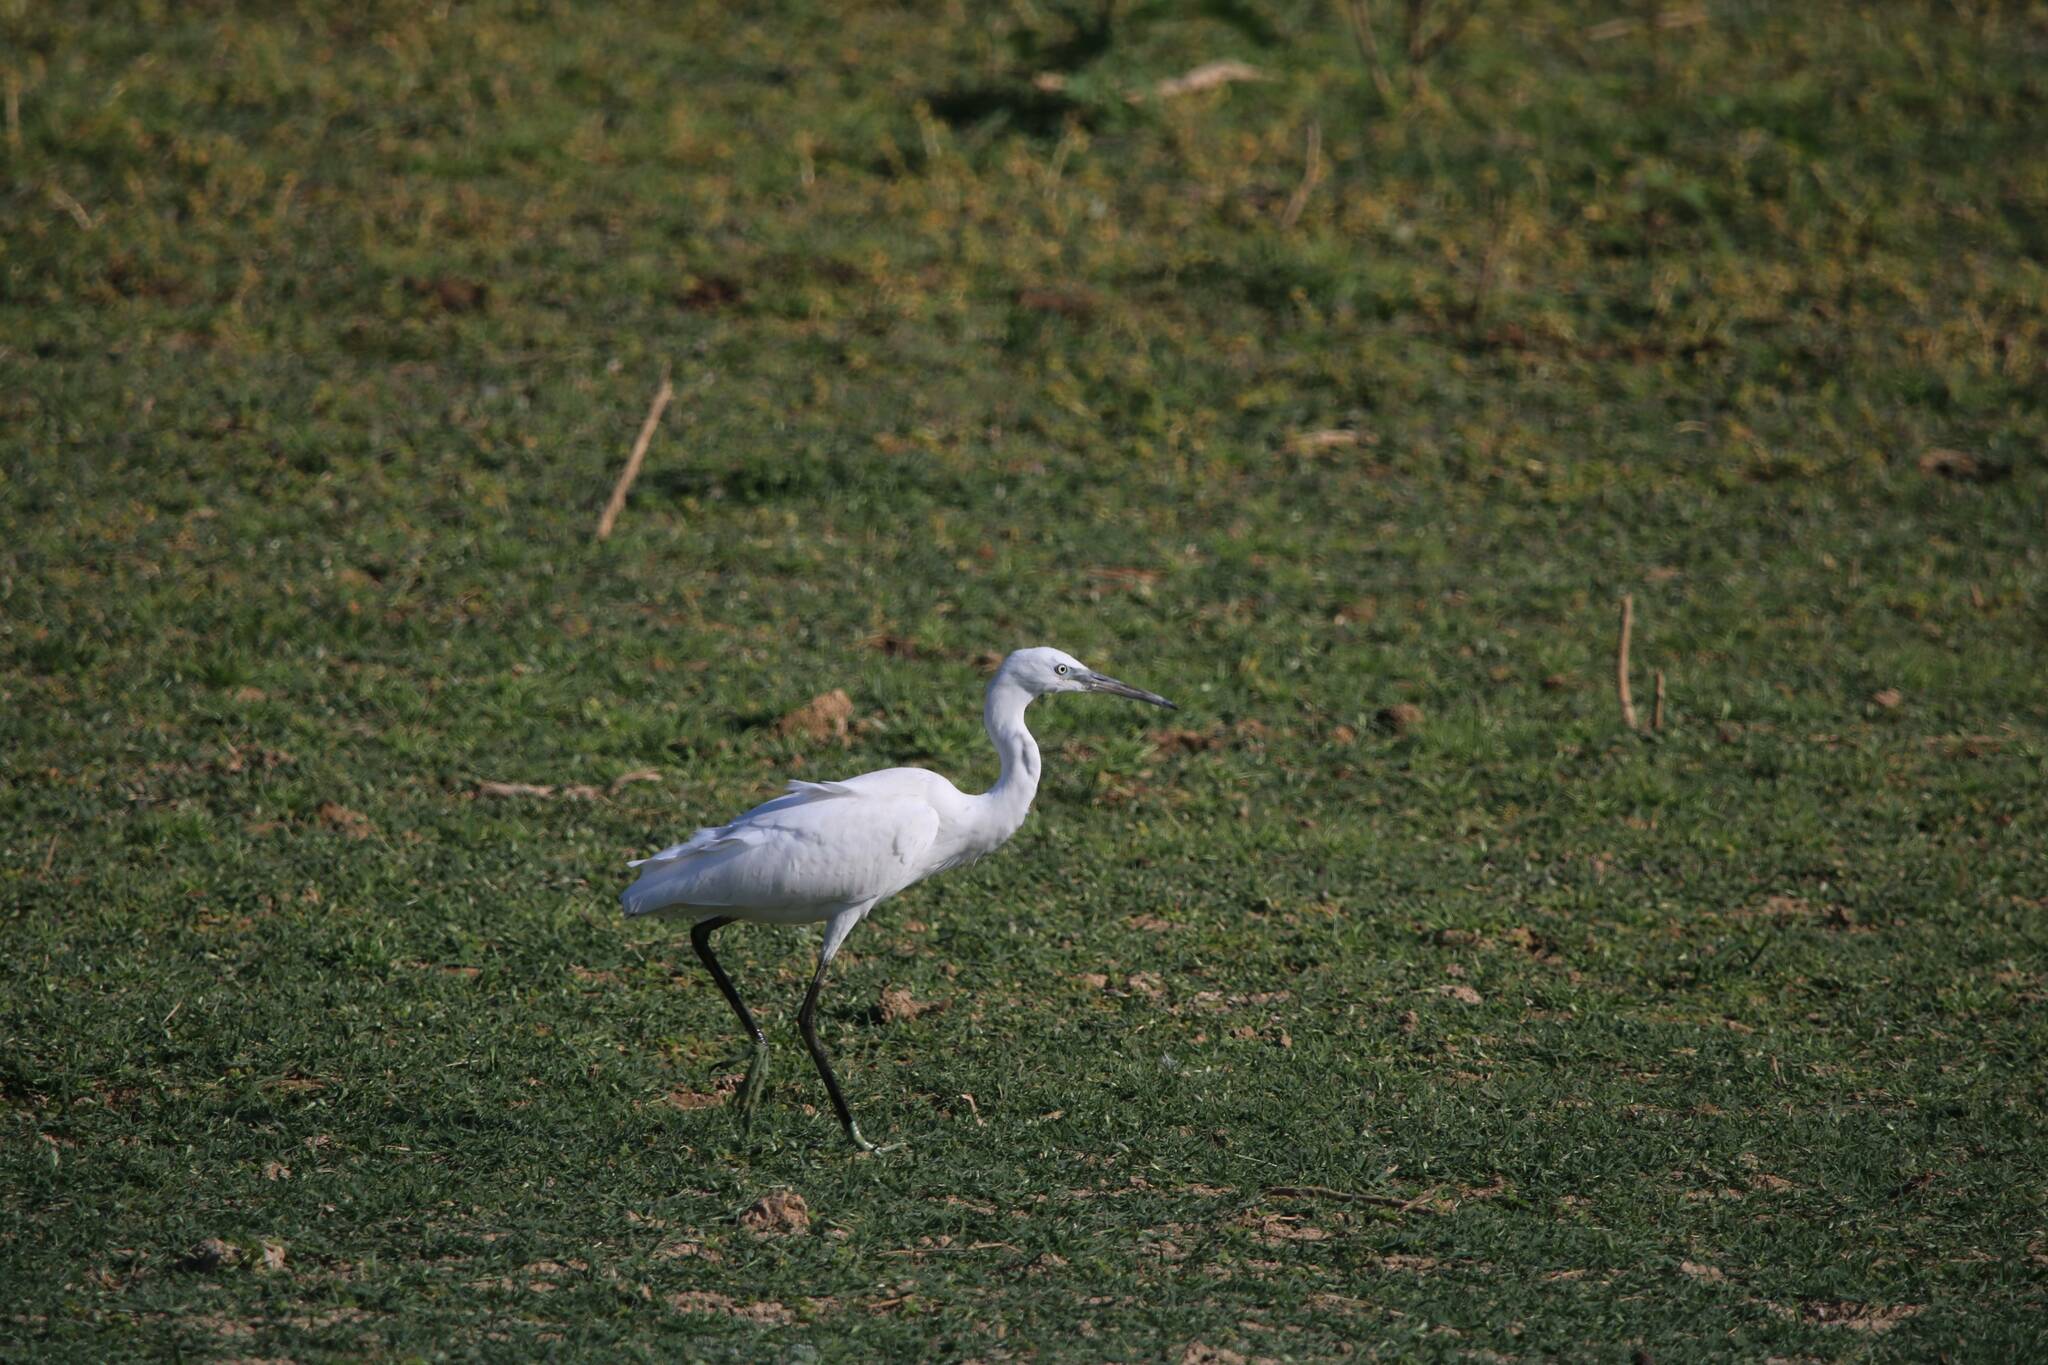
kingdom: Animalia
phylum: Chordata
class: Aves
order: Pelecaniformes
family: Ardeidae
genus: Egretta
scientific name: Egretta garzetta
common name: Little egret
